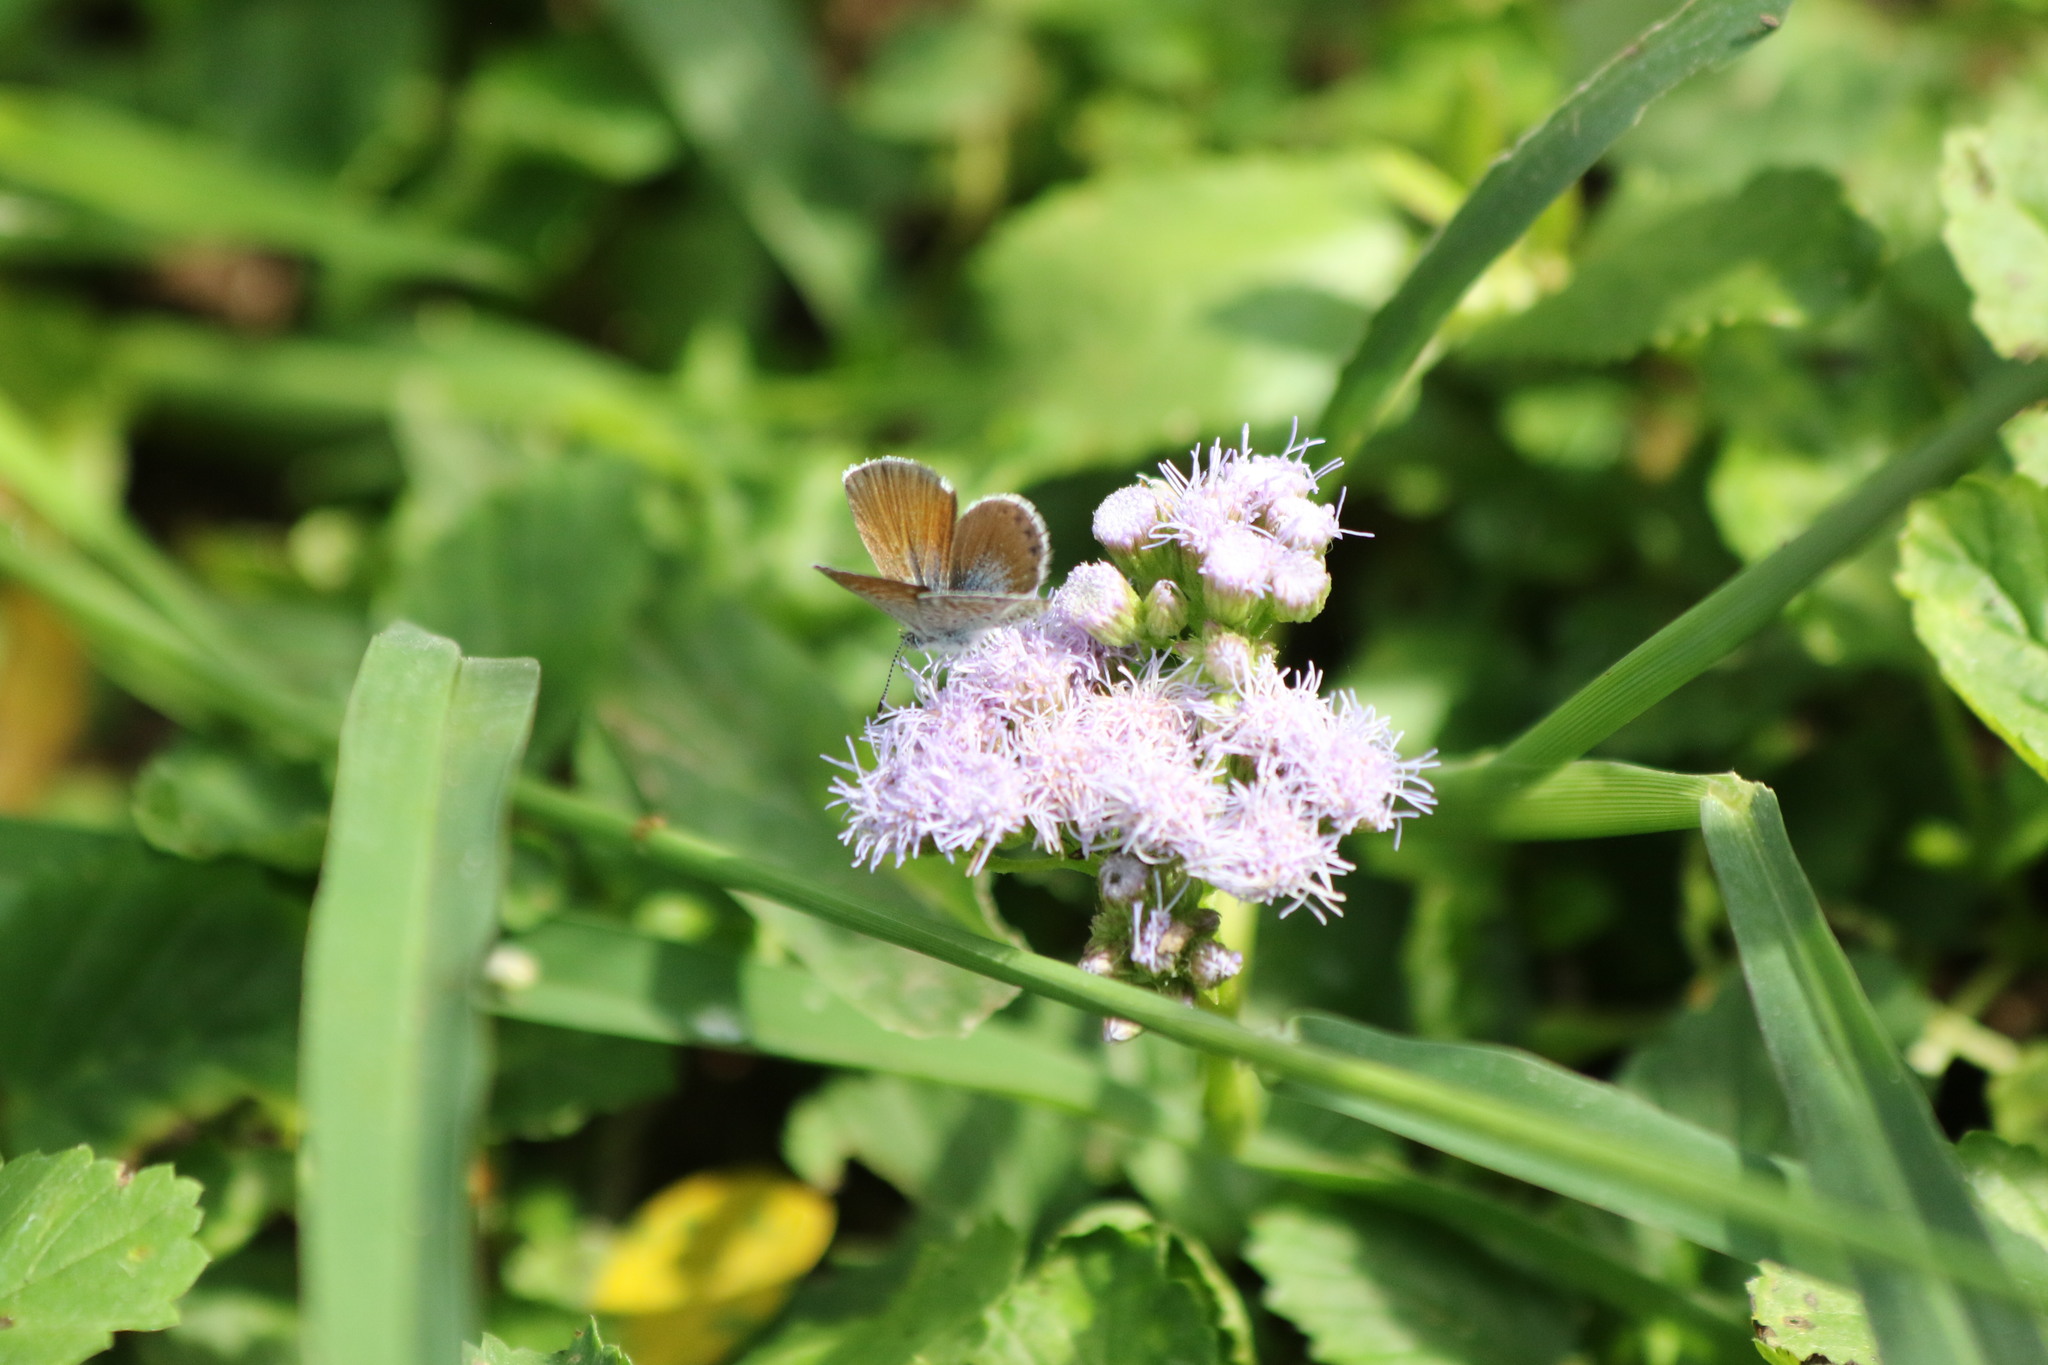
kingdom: Animalia
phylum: Arthropoda
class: Insecta
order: Lepidoptera
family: Lycaenidae
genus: Brephidium
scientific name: Brephidium exilis
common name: Pygmy blue
